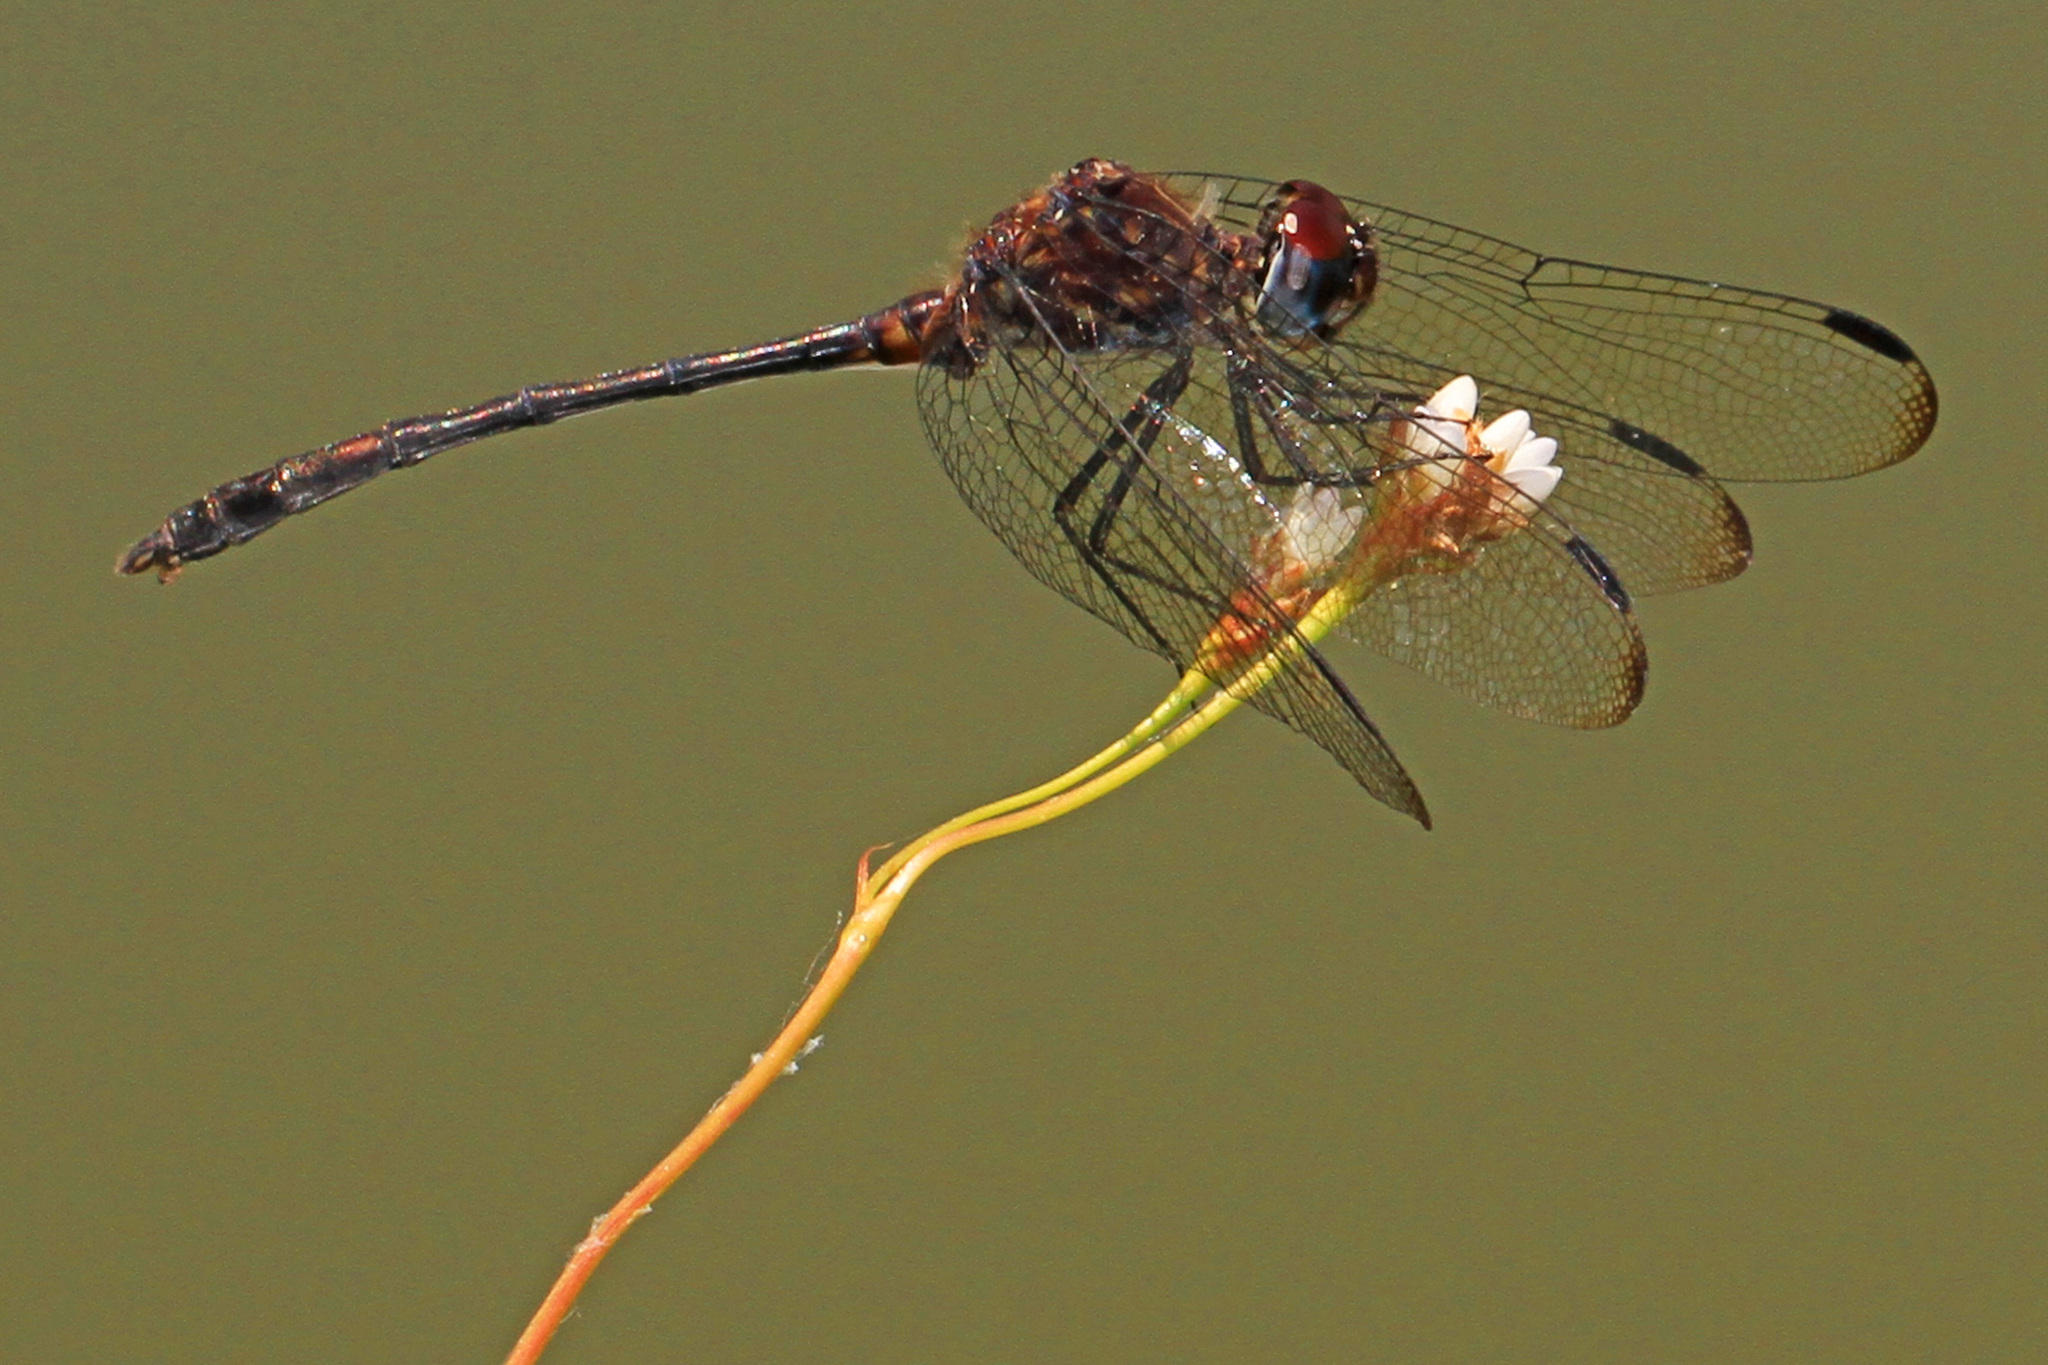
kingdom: Animalia
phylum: Arthropoda
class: Insecta
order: Odonata
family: Libellulidae
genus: Dythemis
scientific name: Dythemis velox
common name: Swift setwing
